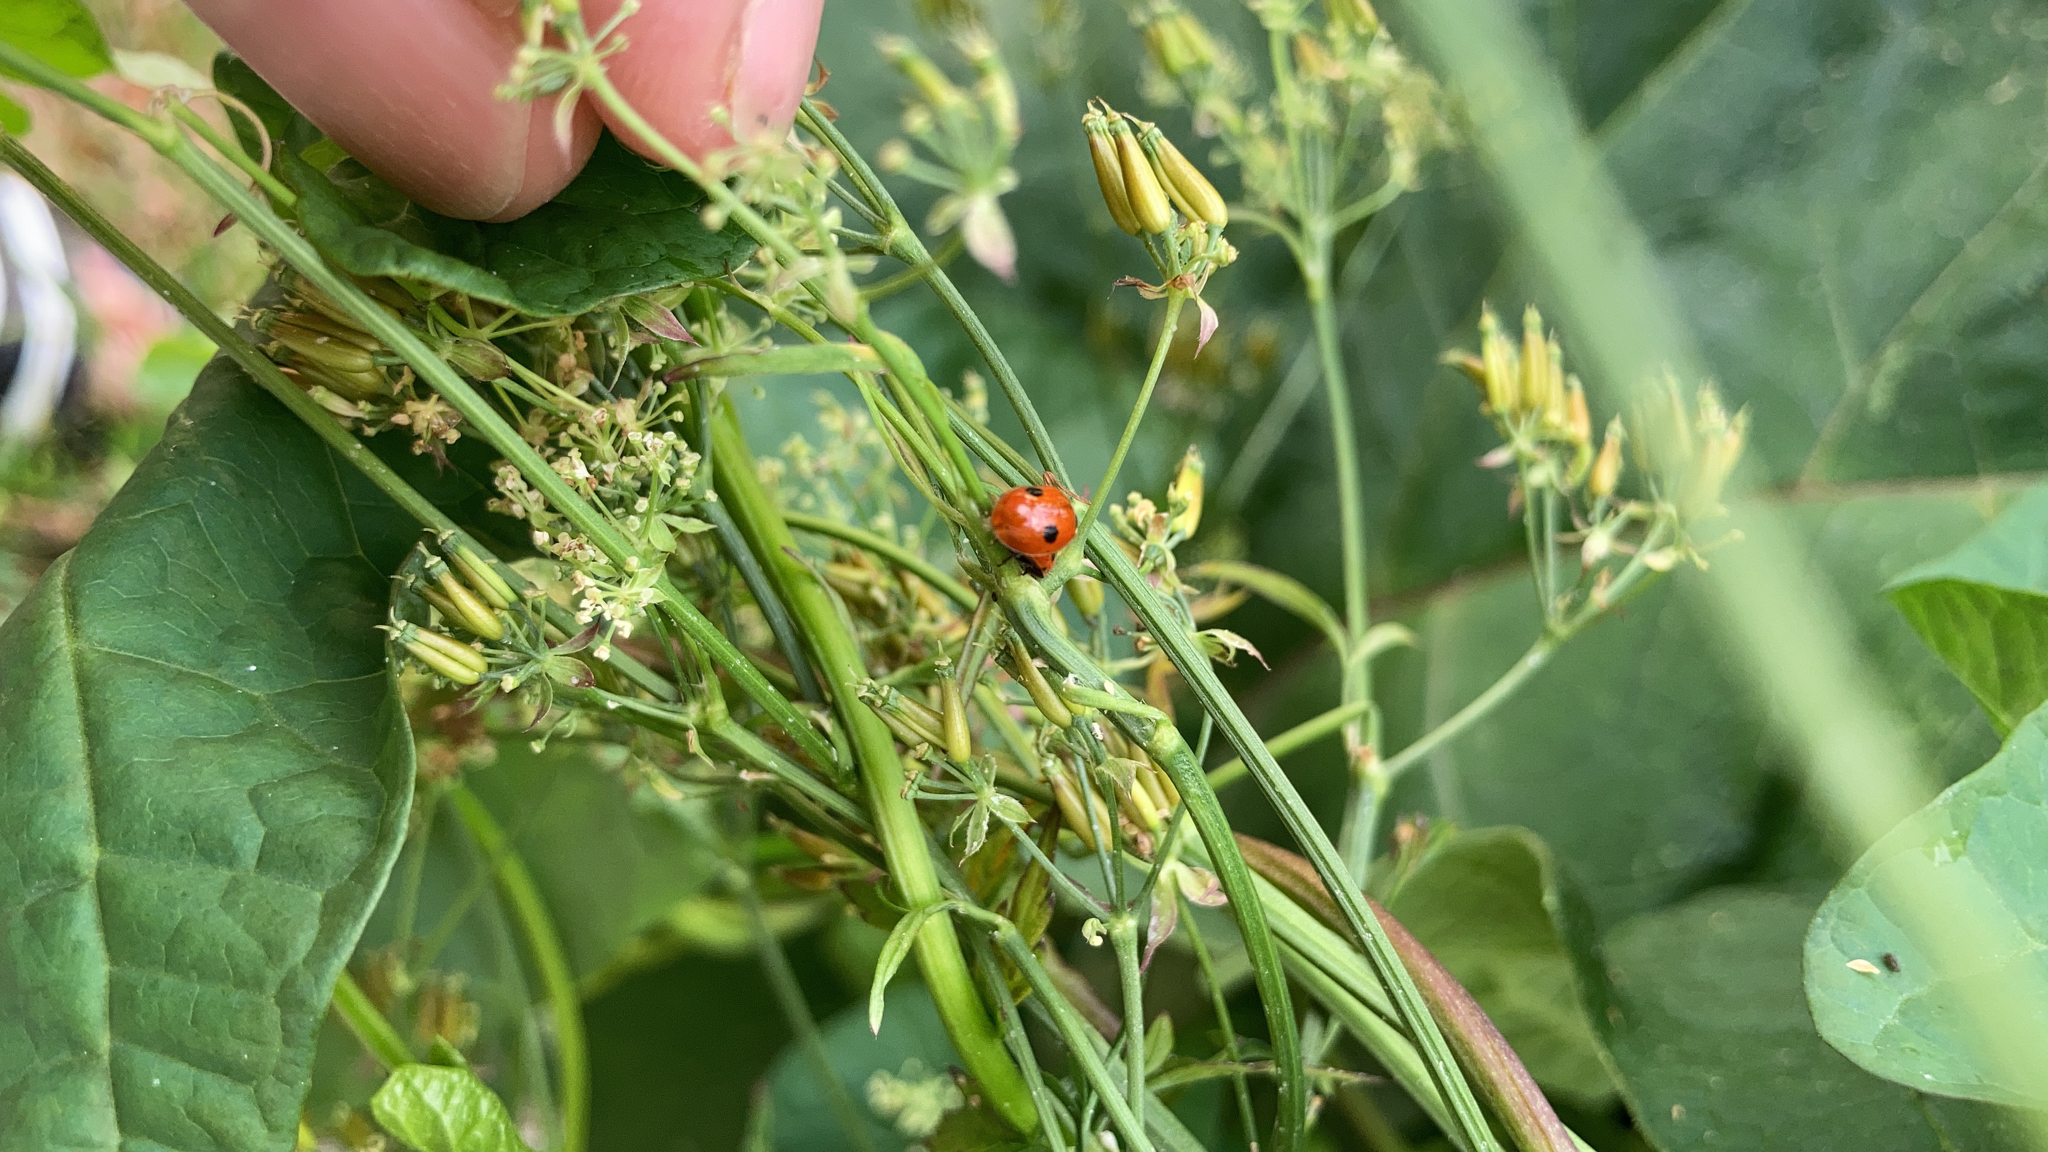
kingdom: Animalia
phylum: Arthropoda
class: Insecta
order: Coleoptera
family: Coccinellidae
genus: Adalia
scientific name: Adalia bipunctata
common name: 2-spot ladybird
